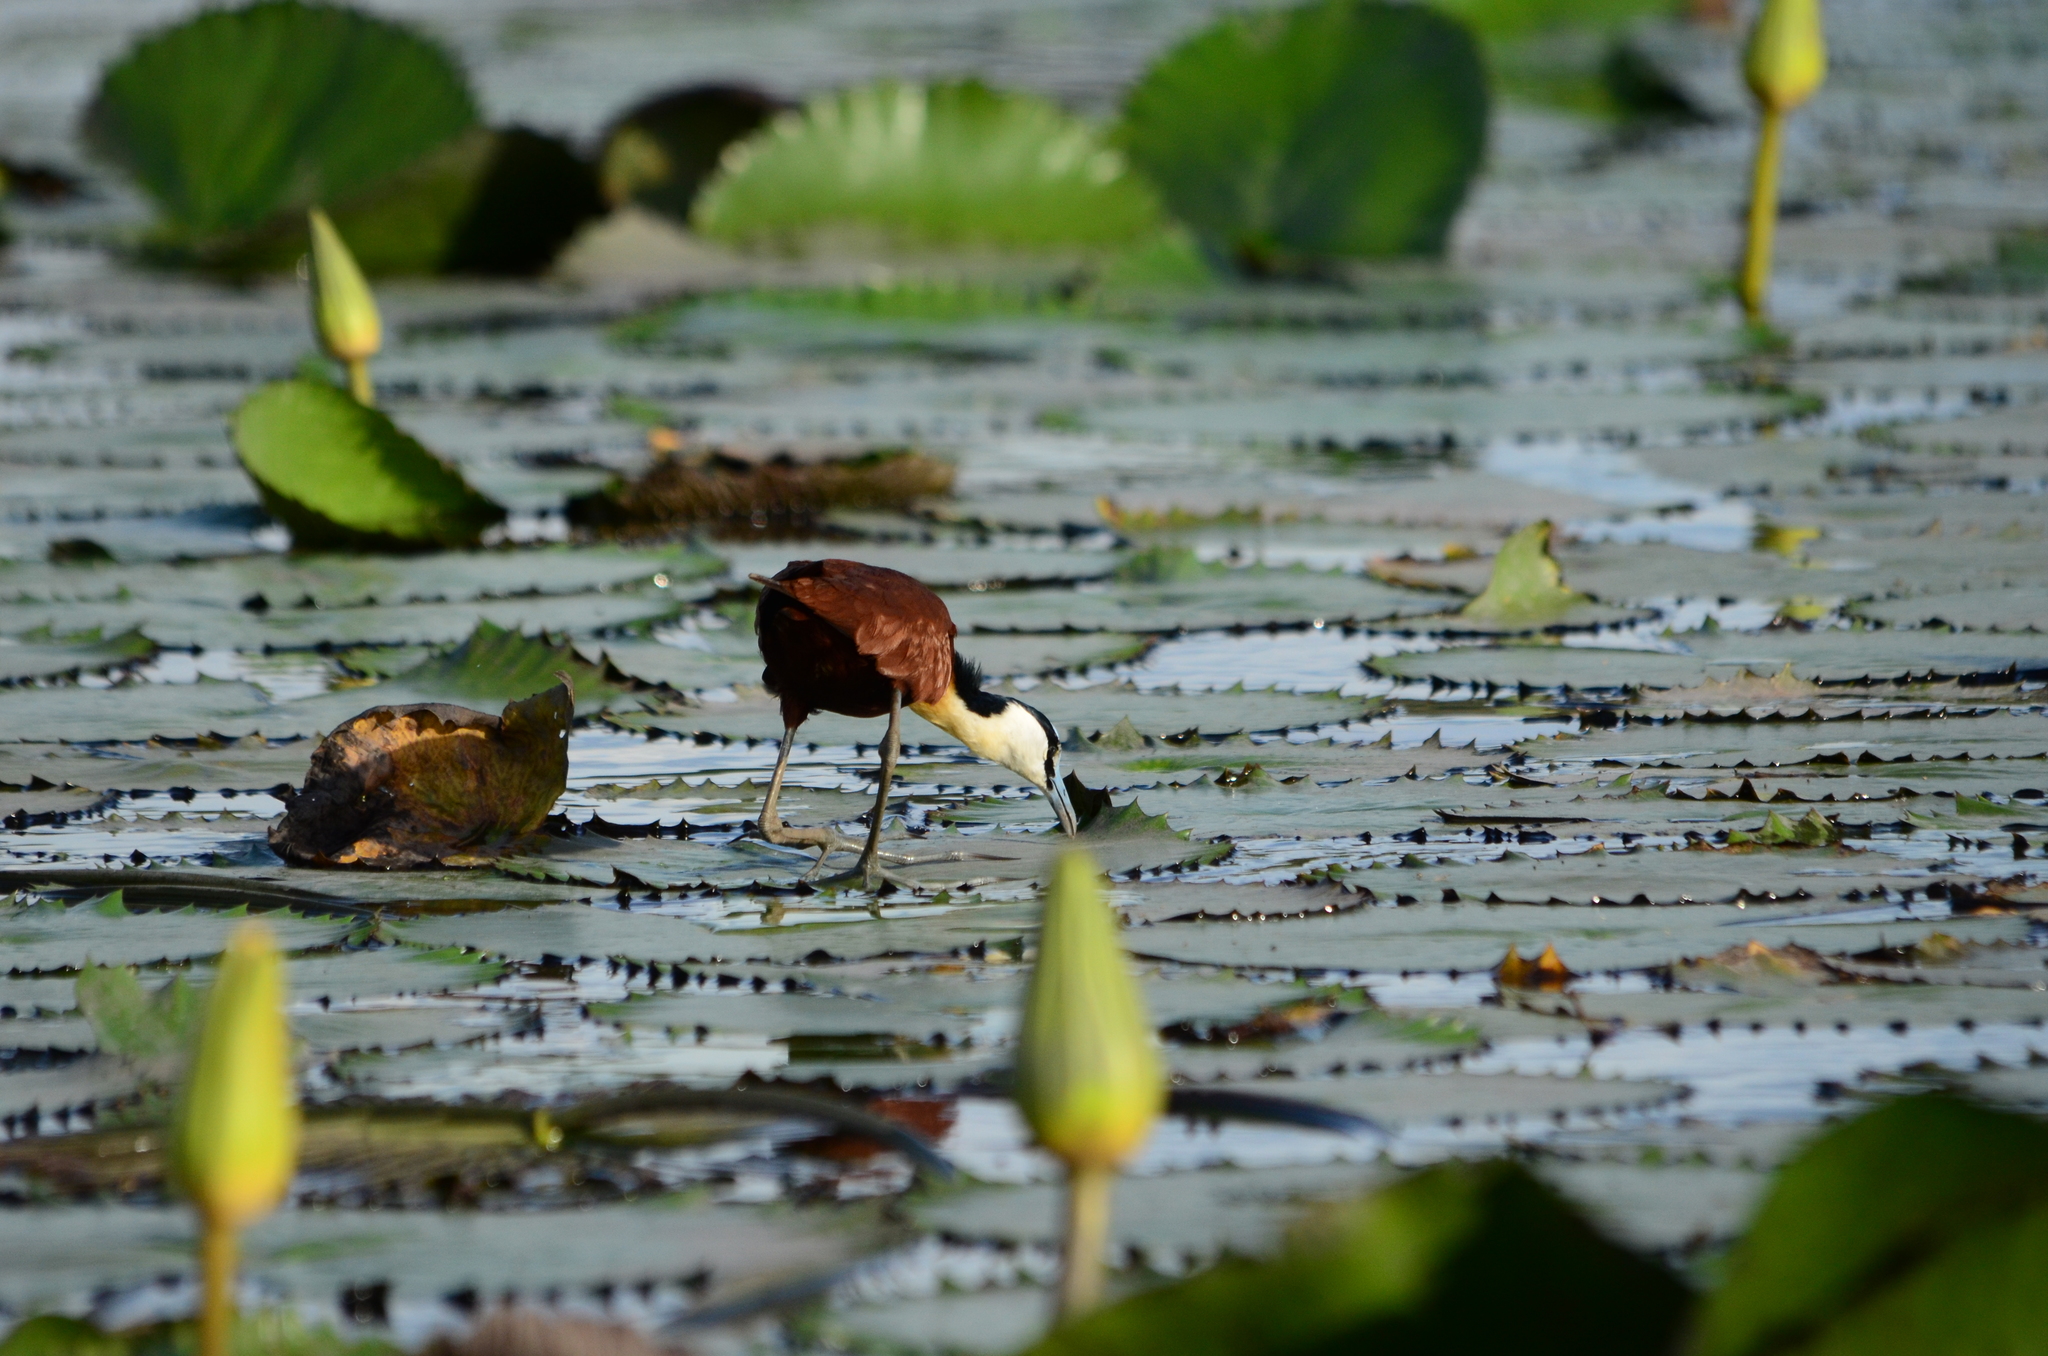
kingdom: Animalia
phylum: Chordata
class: Aves
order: Charadriiformes
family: Jacanidae
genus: Actophilornis
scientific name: Actophilornis africanus
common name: African jacana
